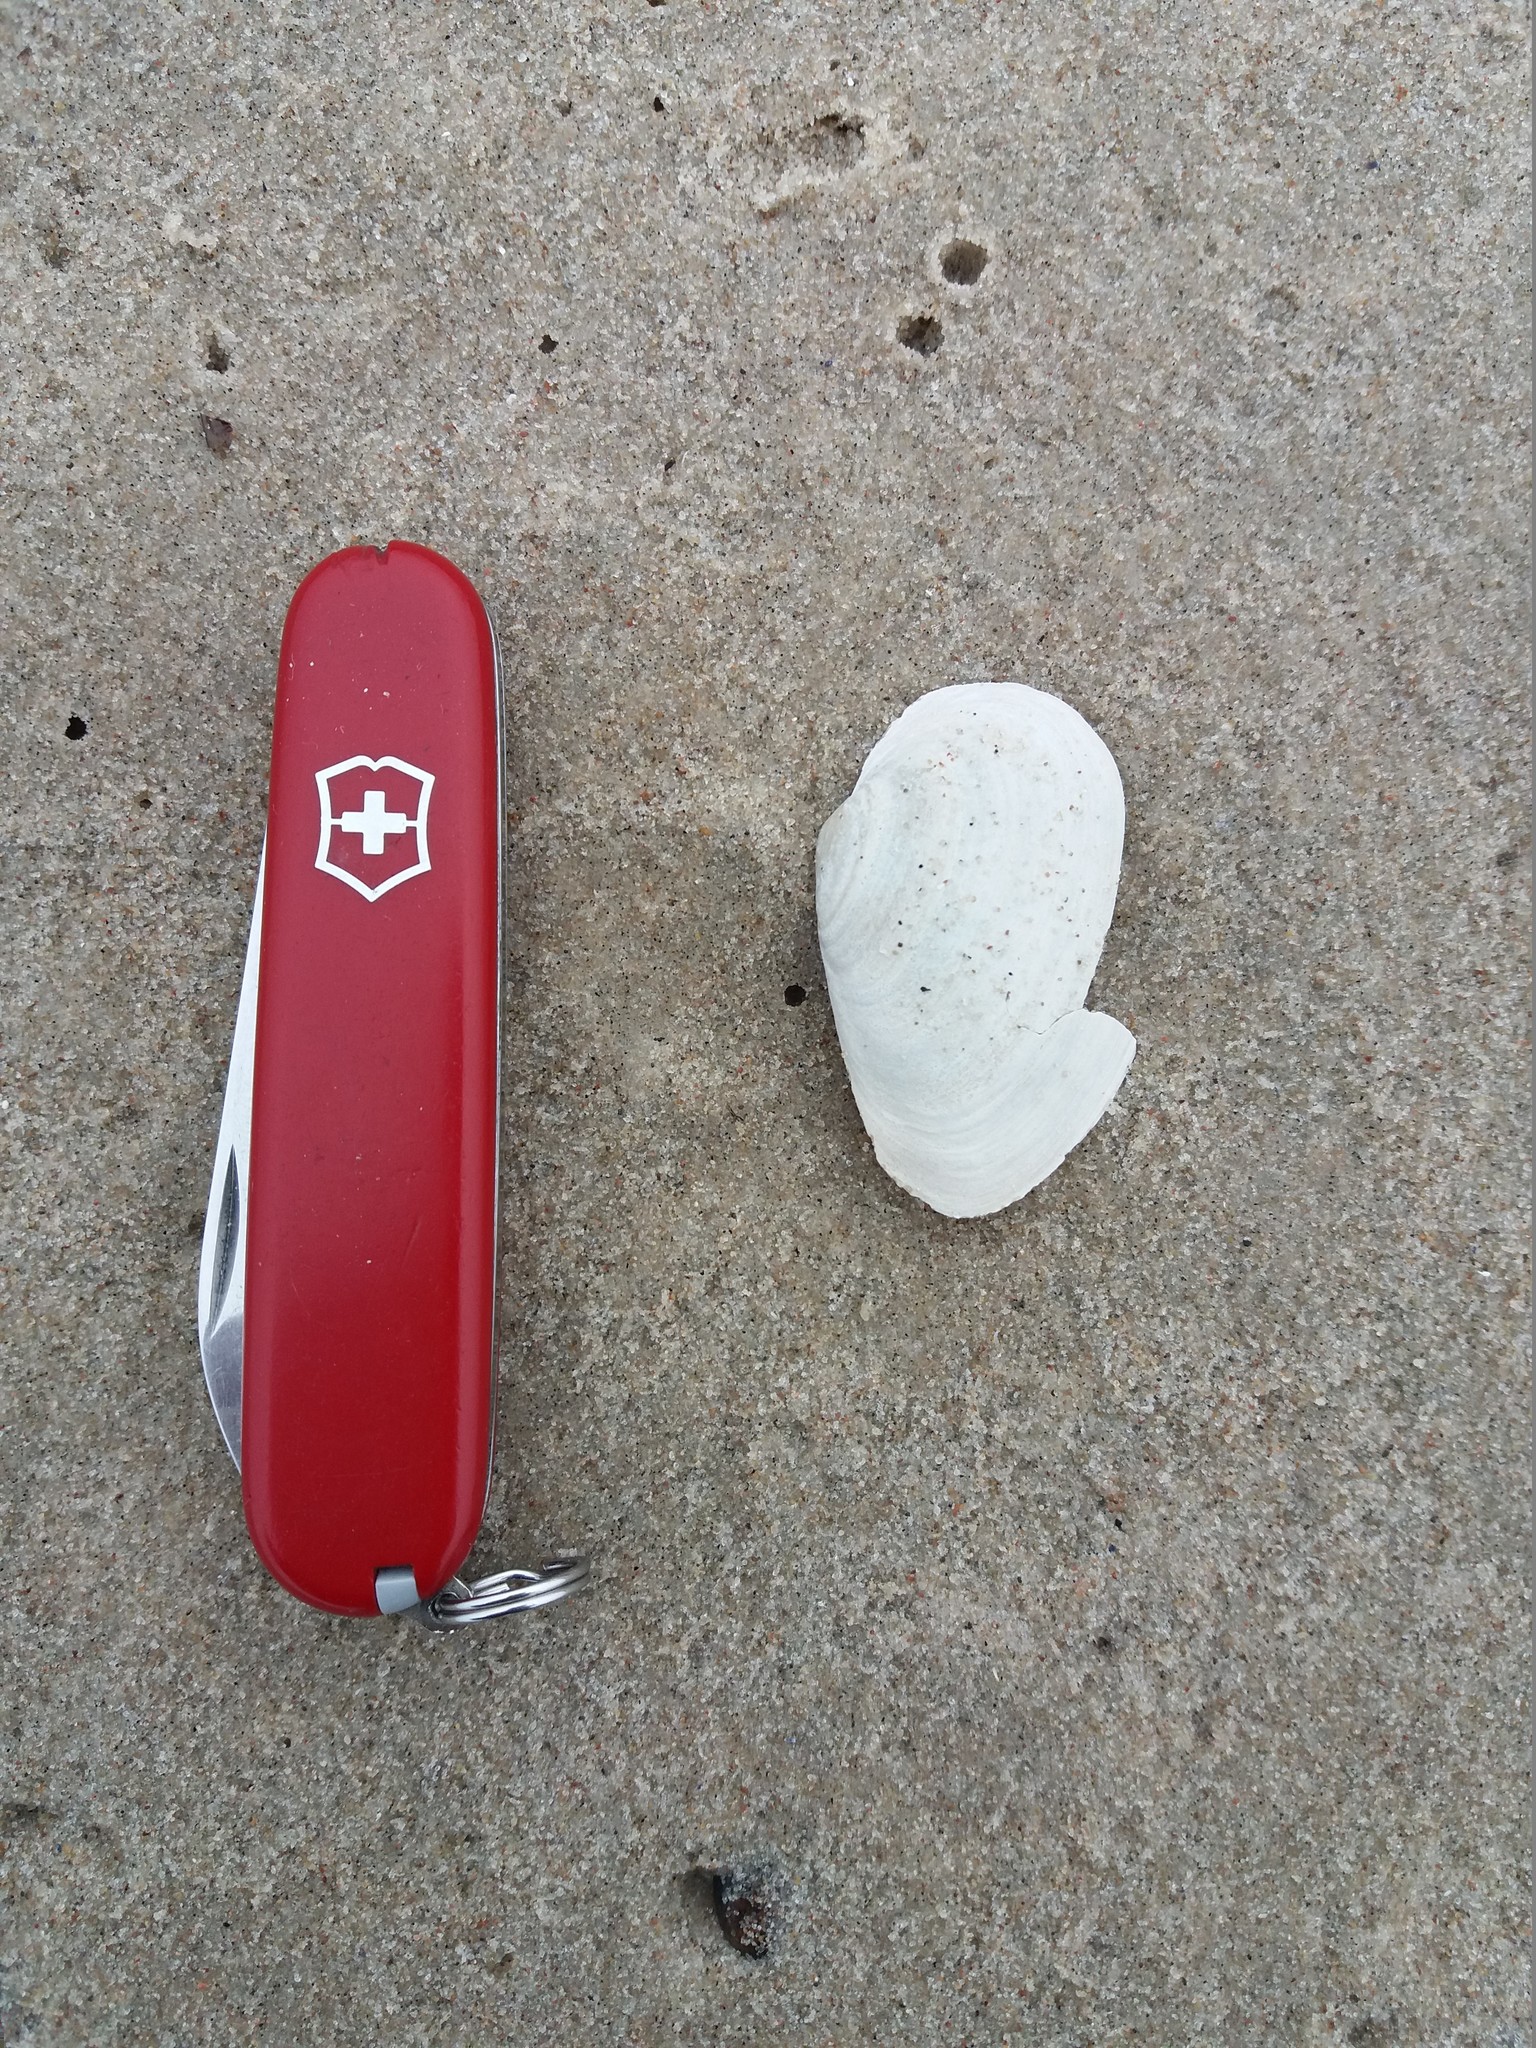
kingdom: Animalia
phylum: Mollusca
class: Bivalvia
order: Myida
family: Myidae
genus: Mya
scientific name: Mya arenaria
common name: Soft-shelled clam
